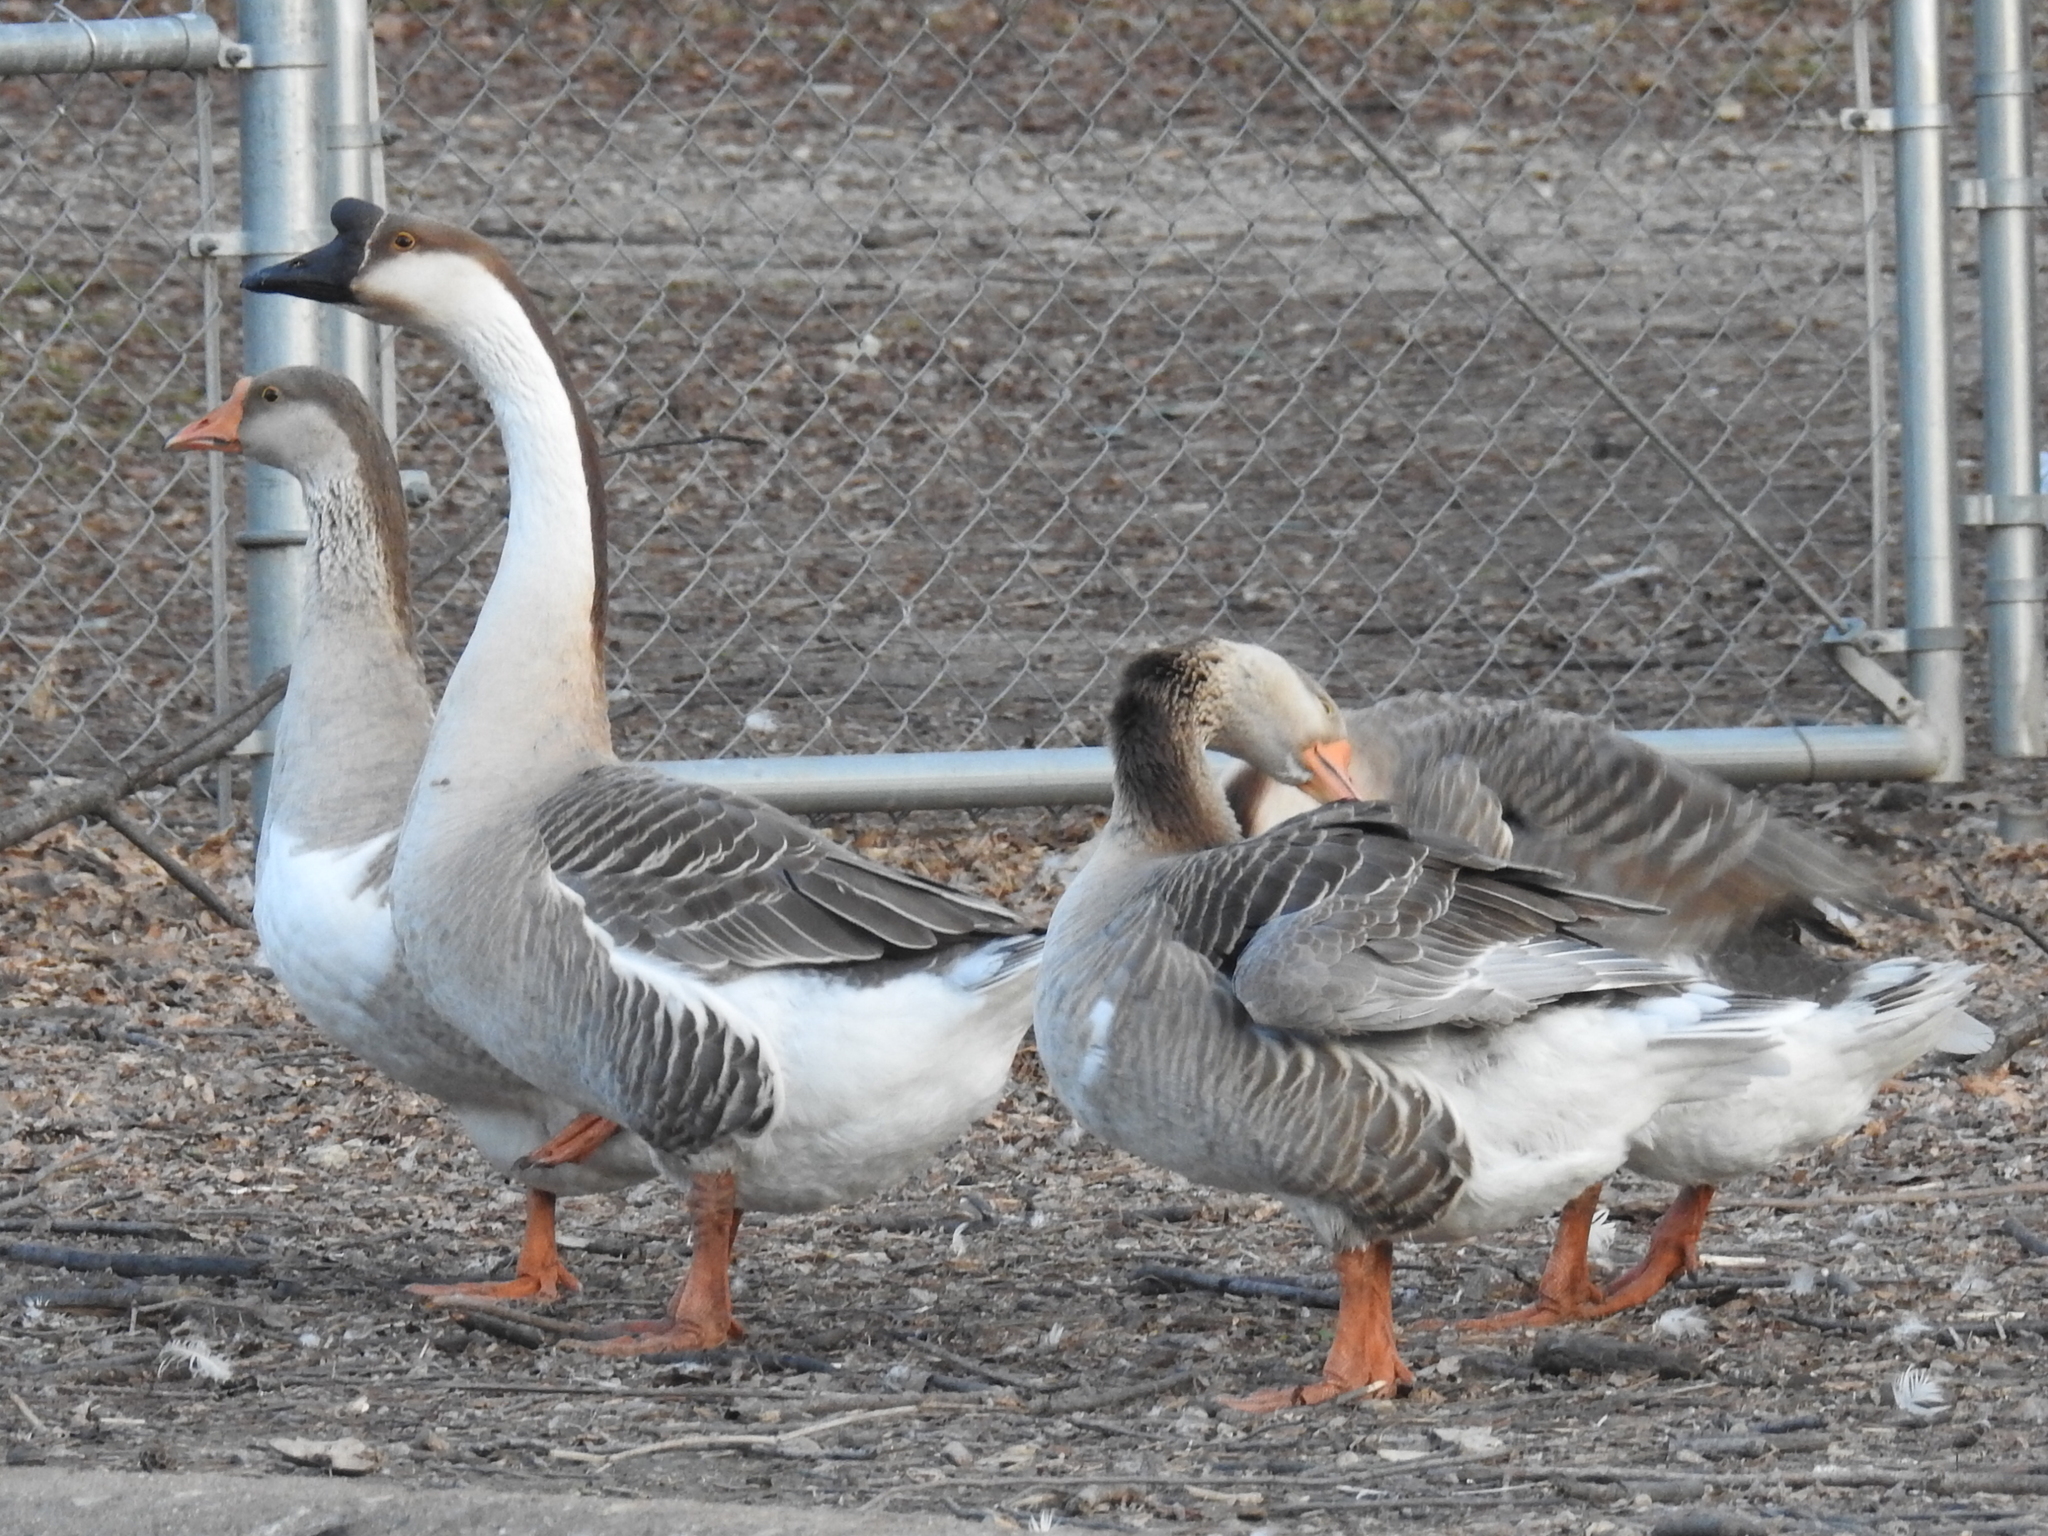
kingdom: Animalia
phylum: Chordata
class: Aves
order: Anseriformes
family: Anatidae
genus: Anser
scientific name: Anser cygnoides
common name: Swan goose
